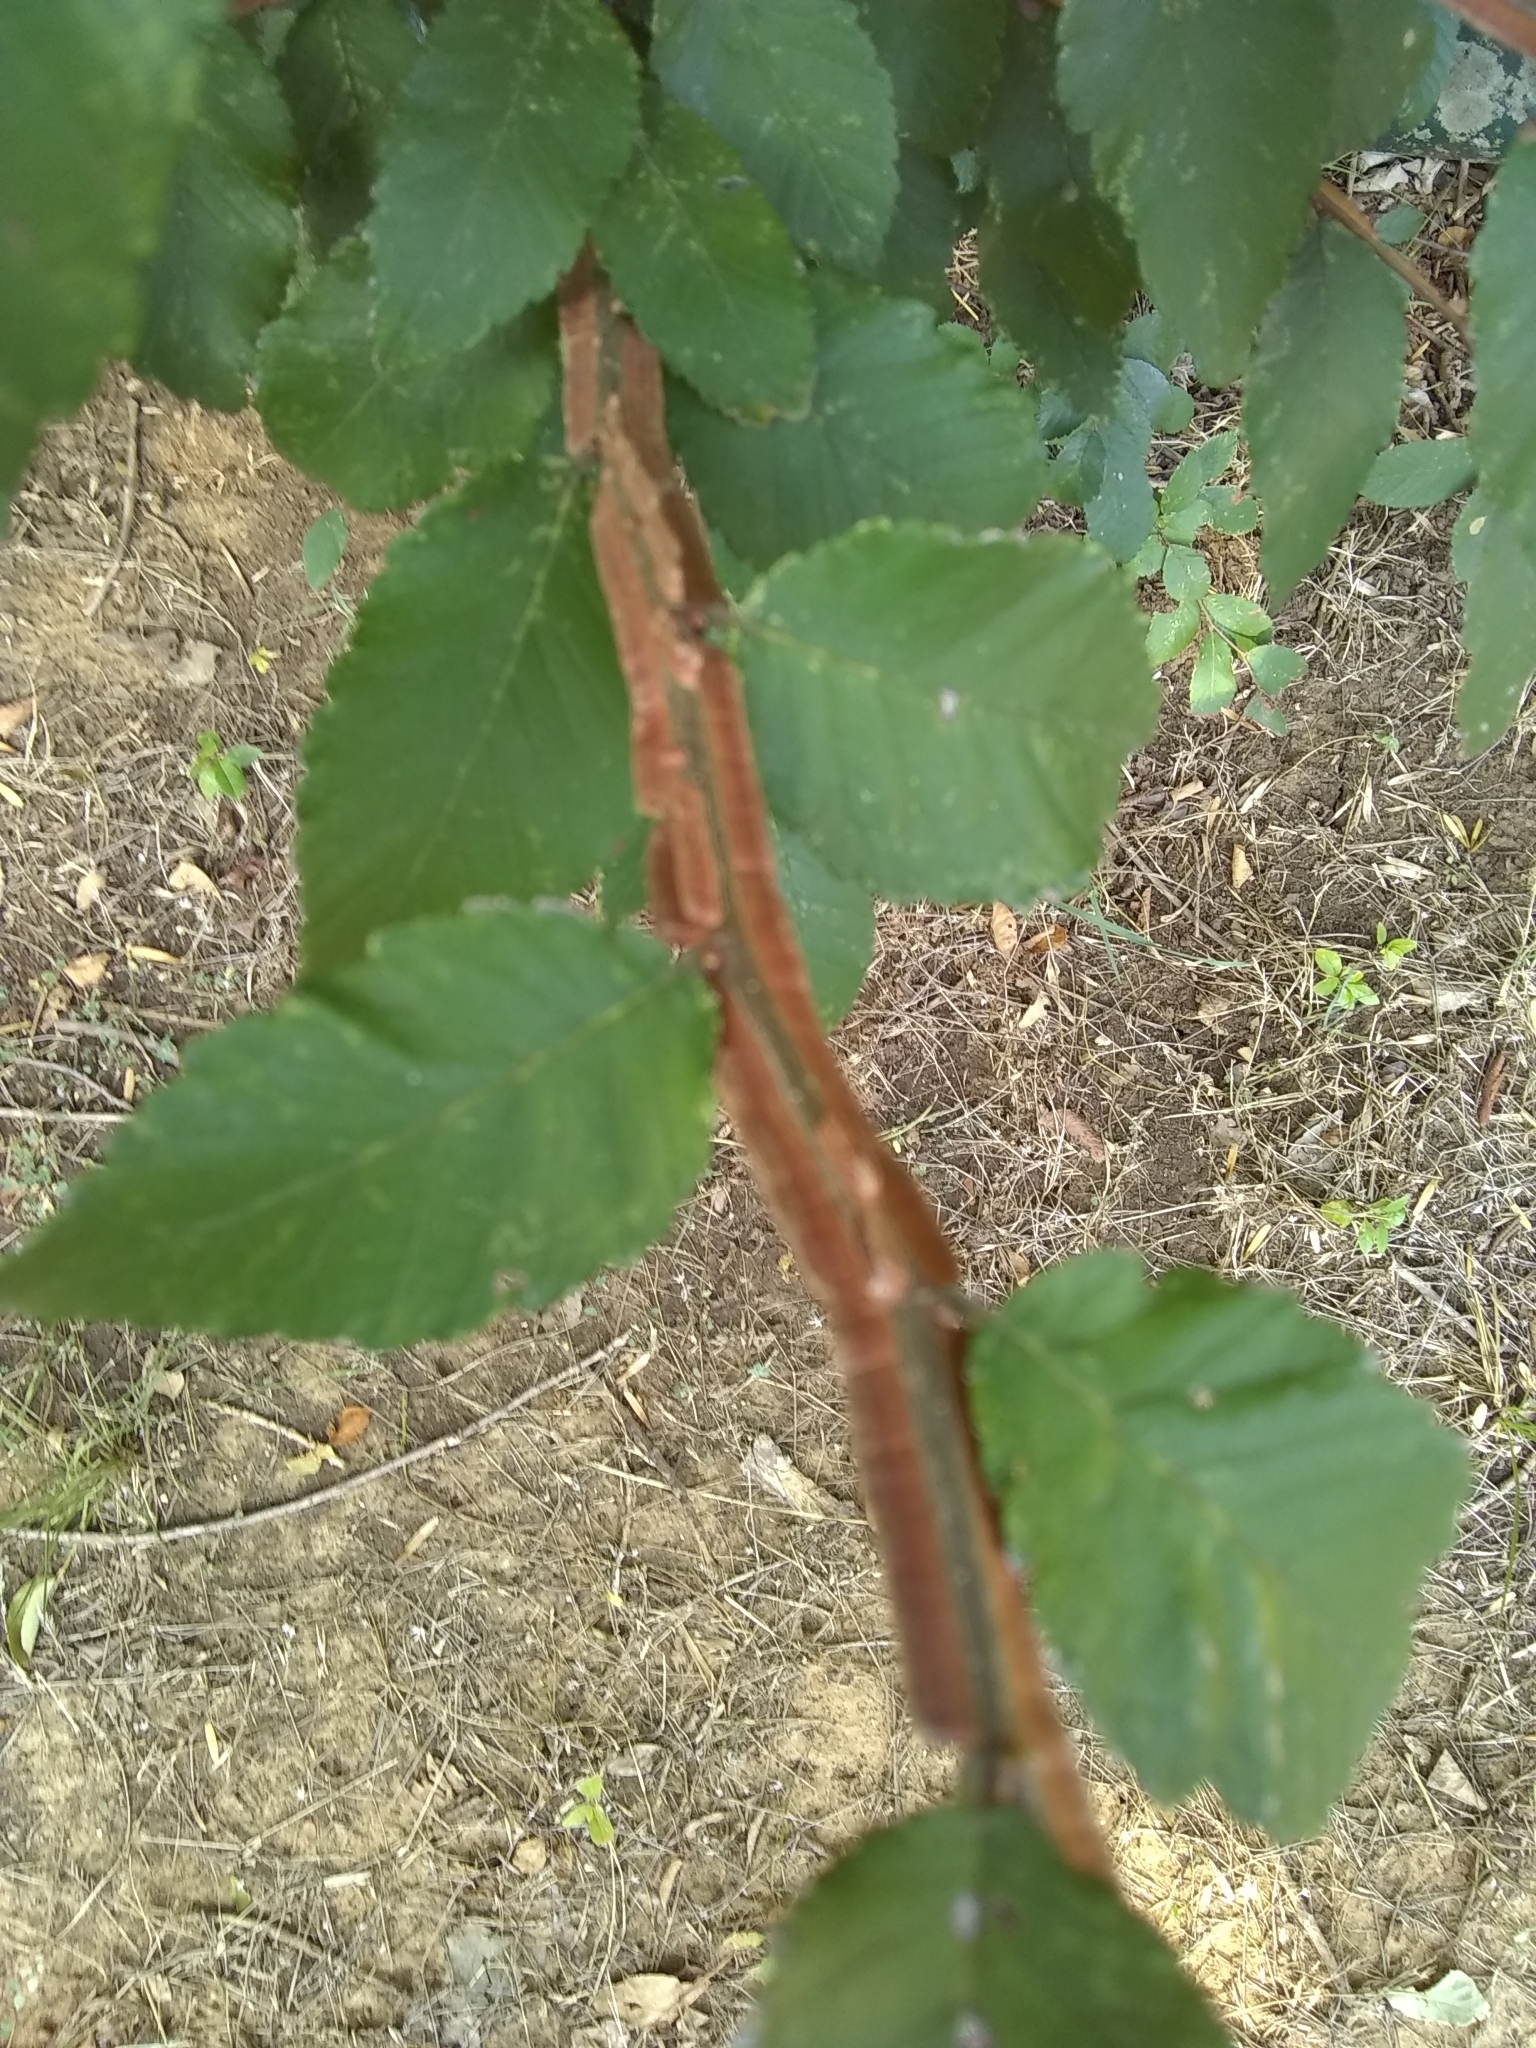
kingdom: Plantae
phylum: Tracheophyta
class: Magnoliopsida
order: Rosales
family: Ulmaceae
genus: Ulmus
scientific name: Ulmus crassifolia
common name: Basket elm
